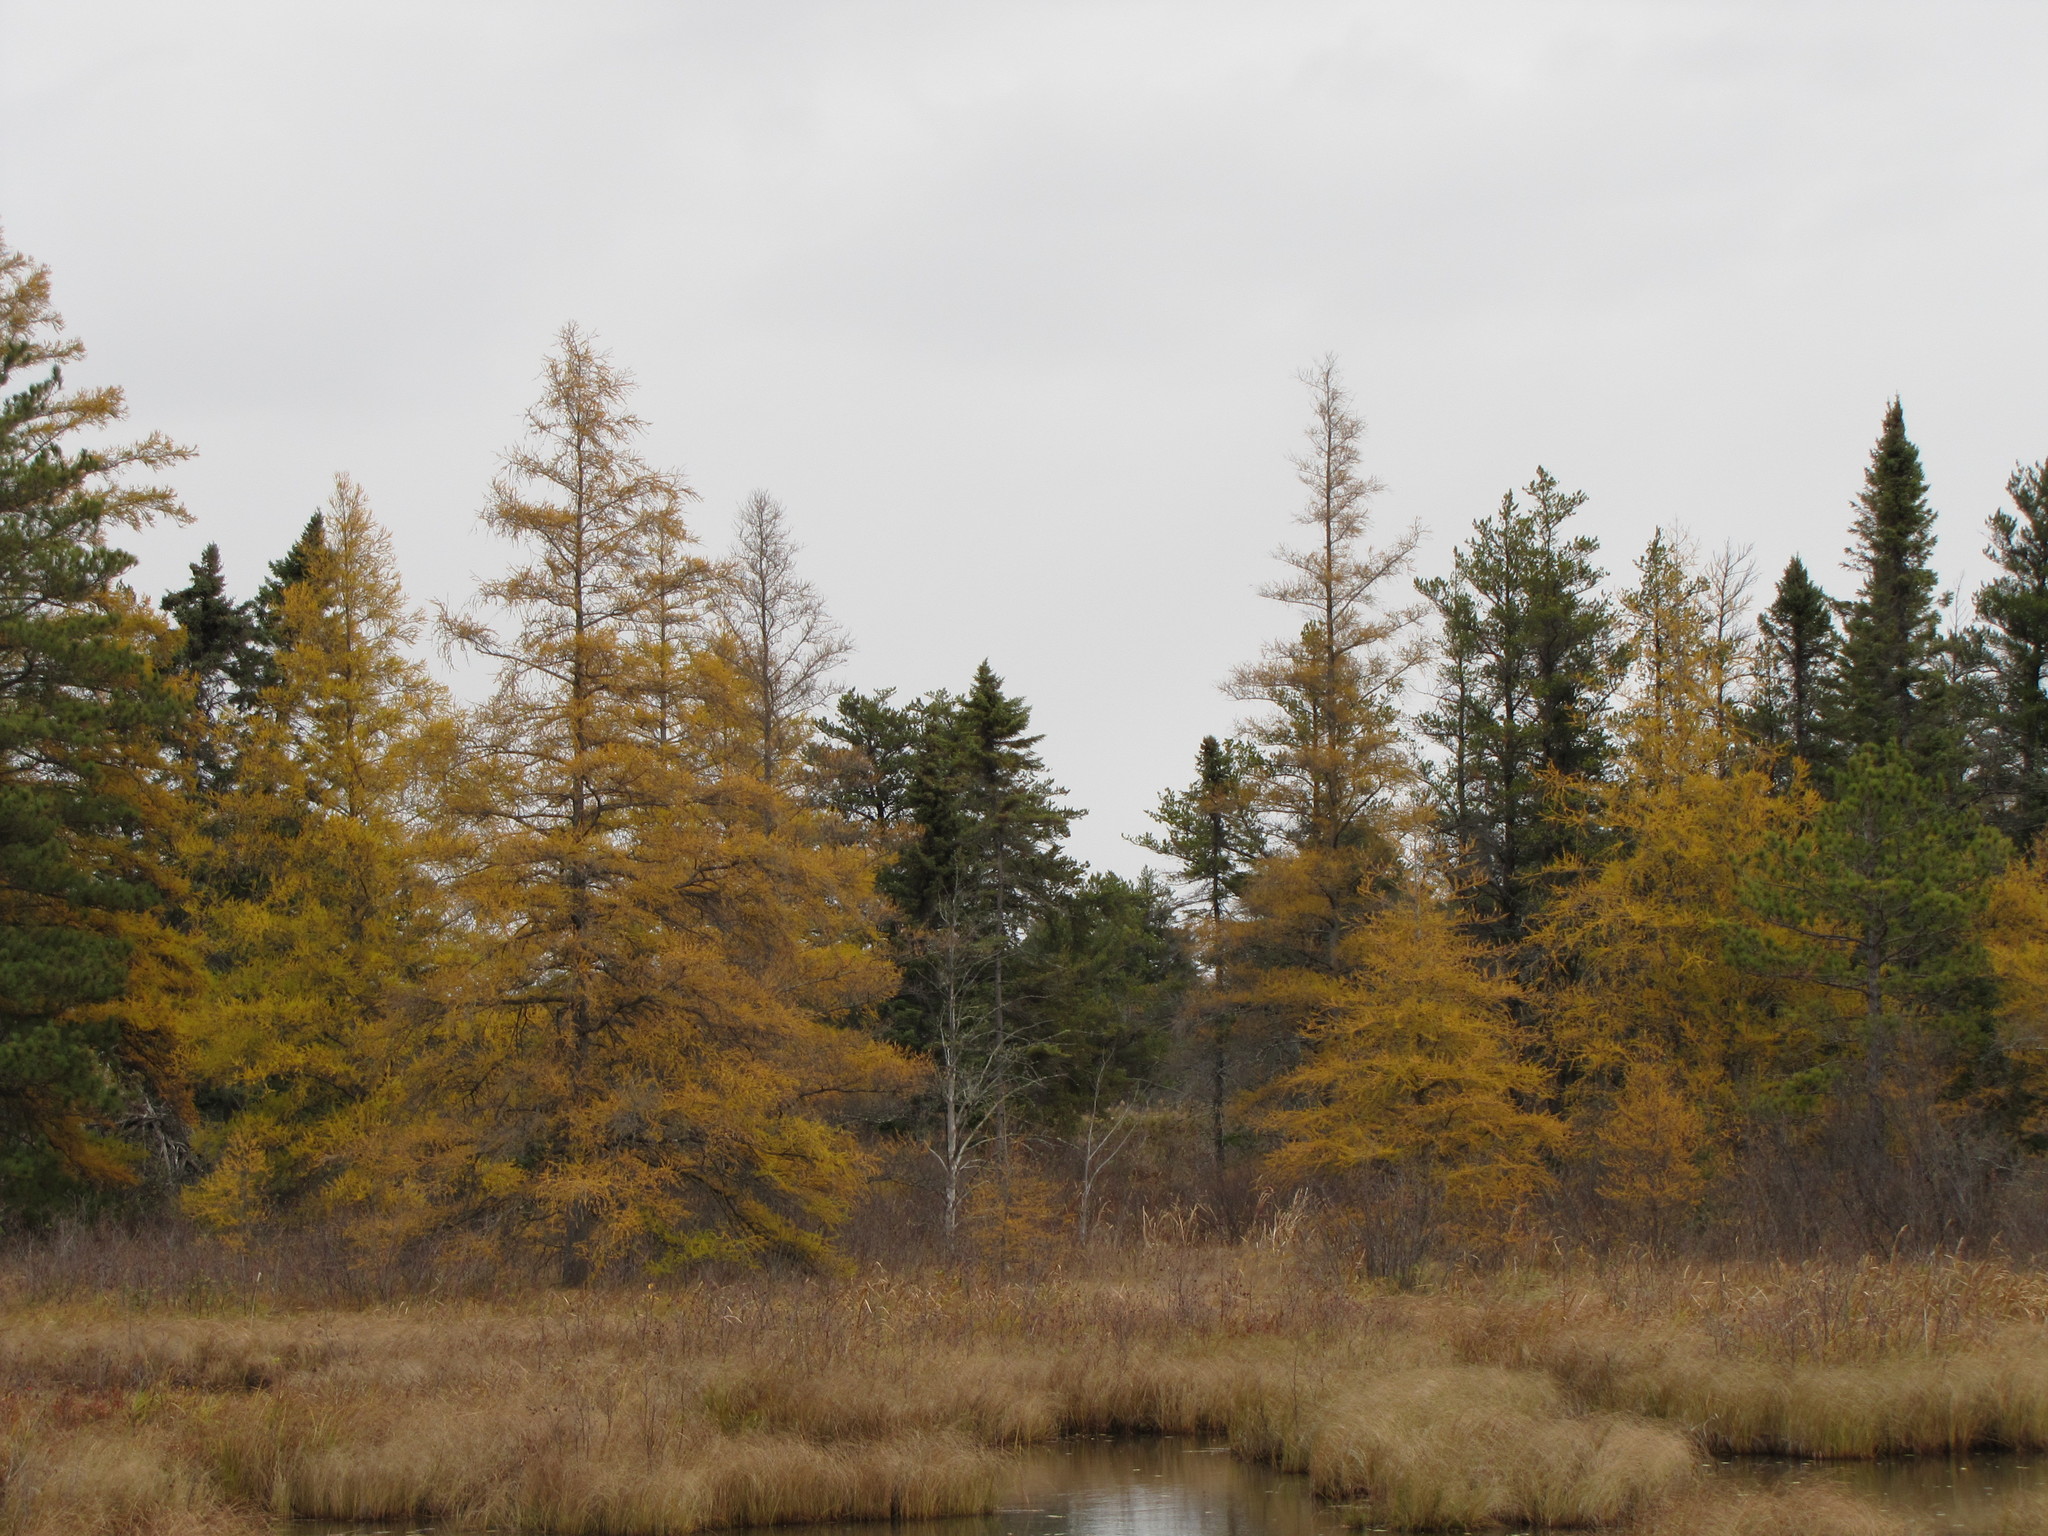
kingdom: Plantae
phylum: Tracheophyta
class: Pinopsida
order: Pinales
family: Pinaceae
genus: Larix
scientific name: Larix laricina
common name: American larch
